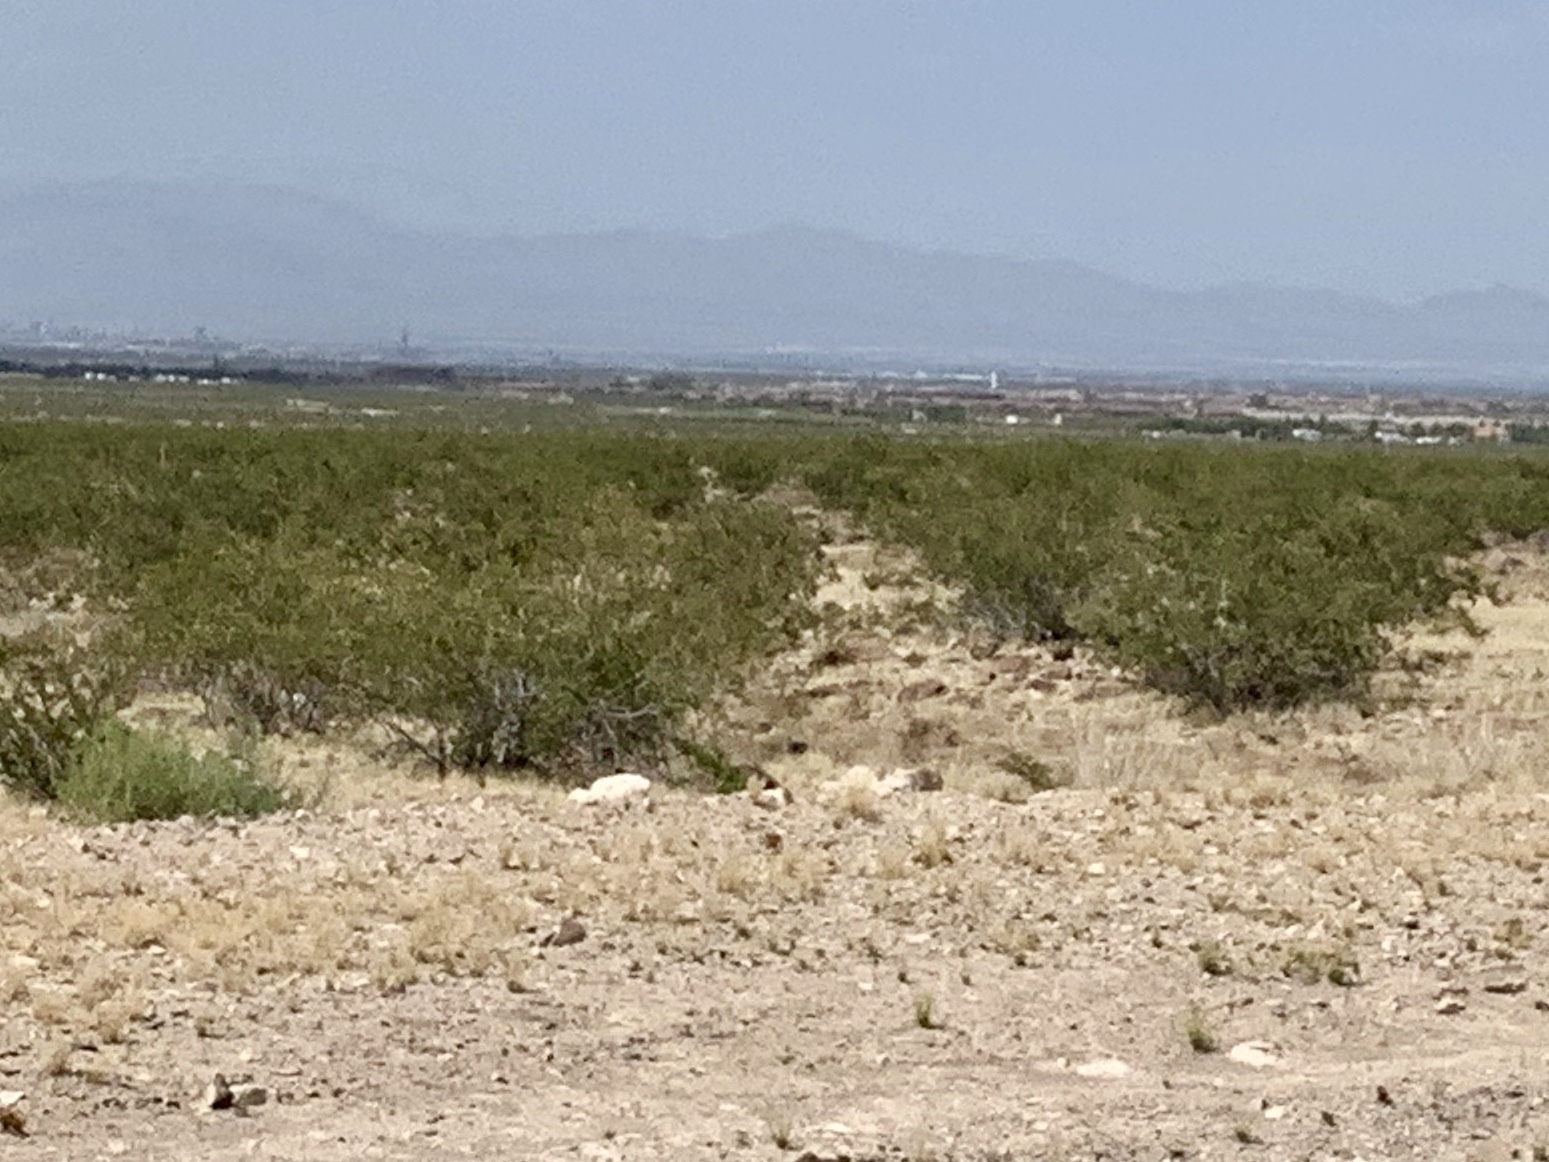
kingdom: Plantae
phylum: Tracheophyta
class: Magnoliopsida
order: Zygophyllales
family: Zygophyllaceae
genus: Larrea
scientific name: Larrea tridentata
